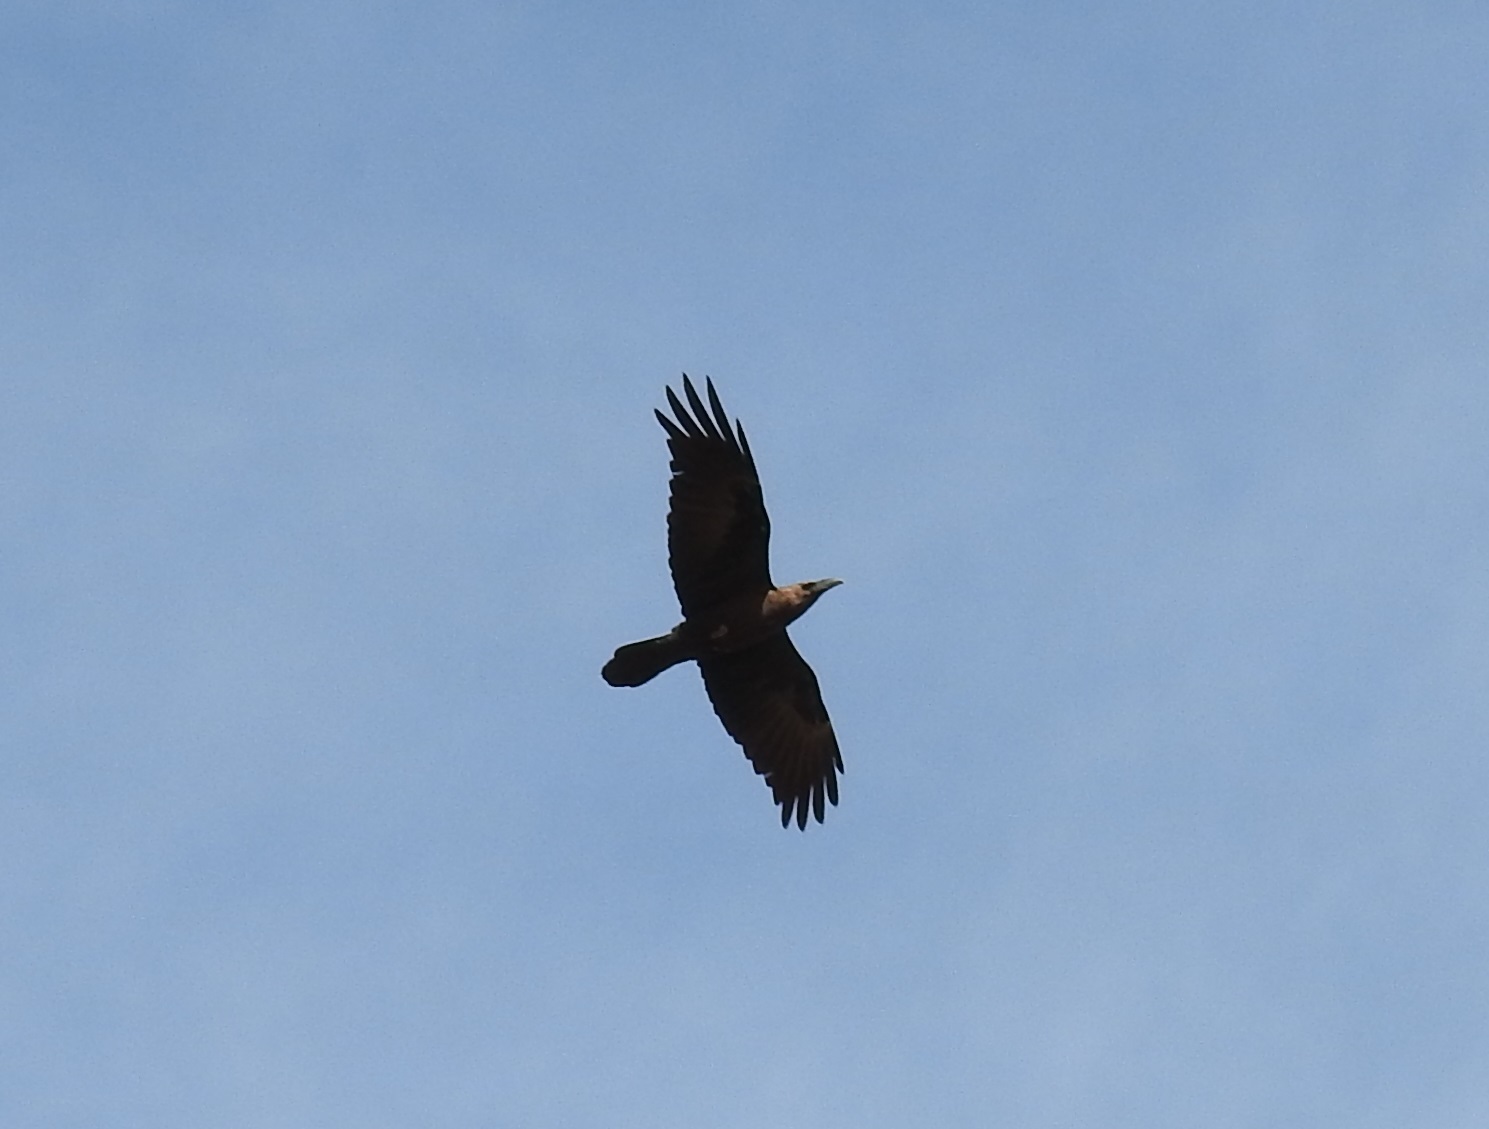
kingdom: Animalia
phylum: Chordata
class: Aves
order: Passeriformes
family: Corvidae
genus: Corvus
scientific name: Corvus ruficollis
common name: Brown-necked raven
